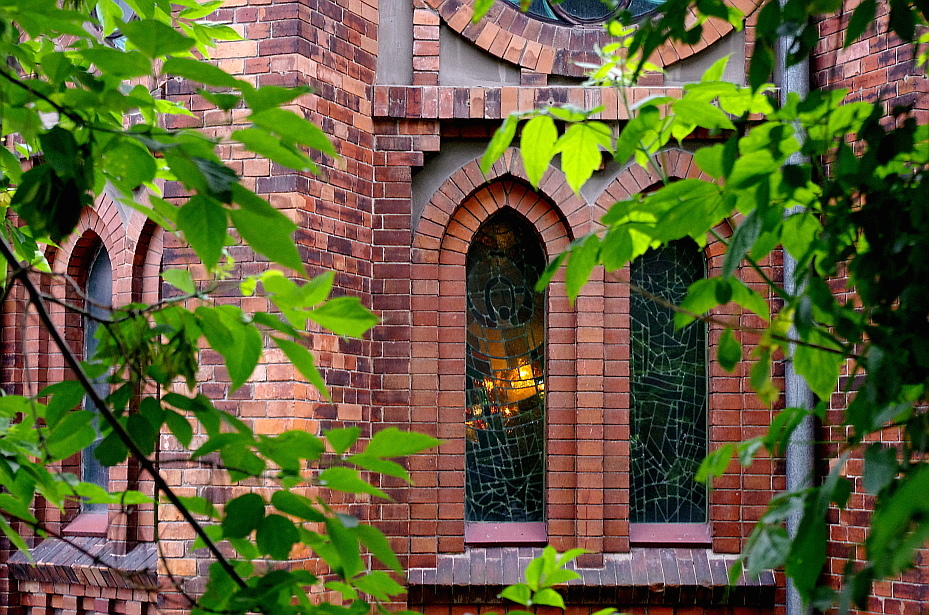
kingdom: Plantae
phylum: Tracheophyta
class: Magnoliopsida
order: Sapindales
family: Sapindaceae
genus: Acer
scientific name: Acer negundo
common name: Ashleaf maple
